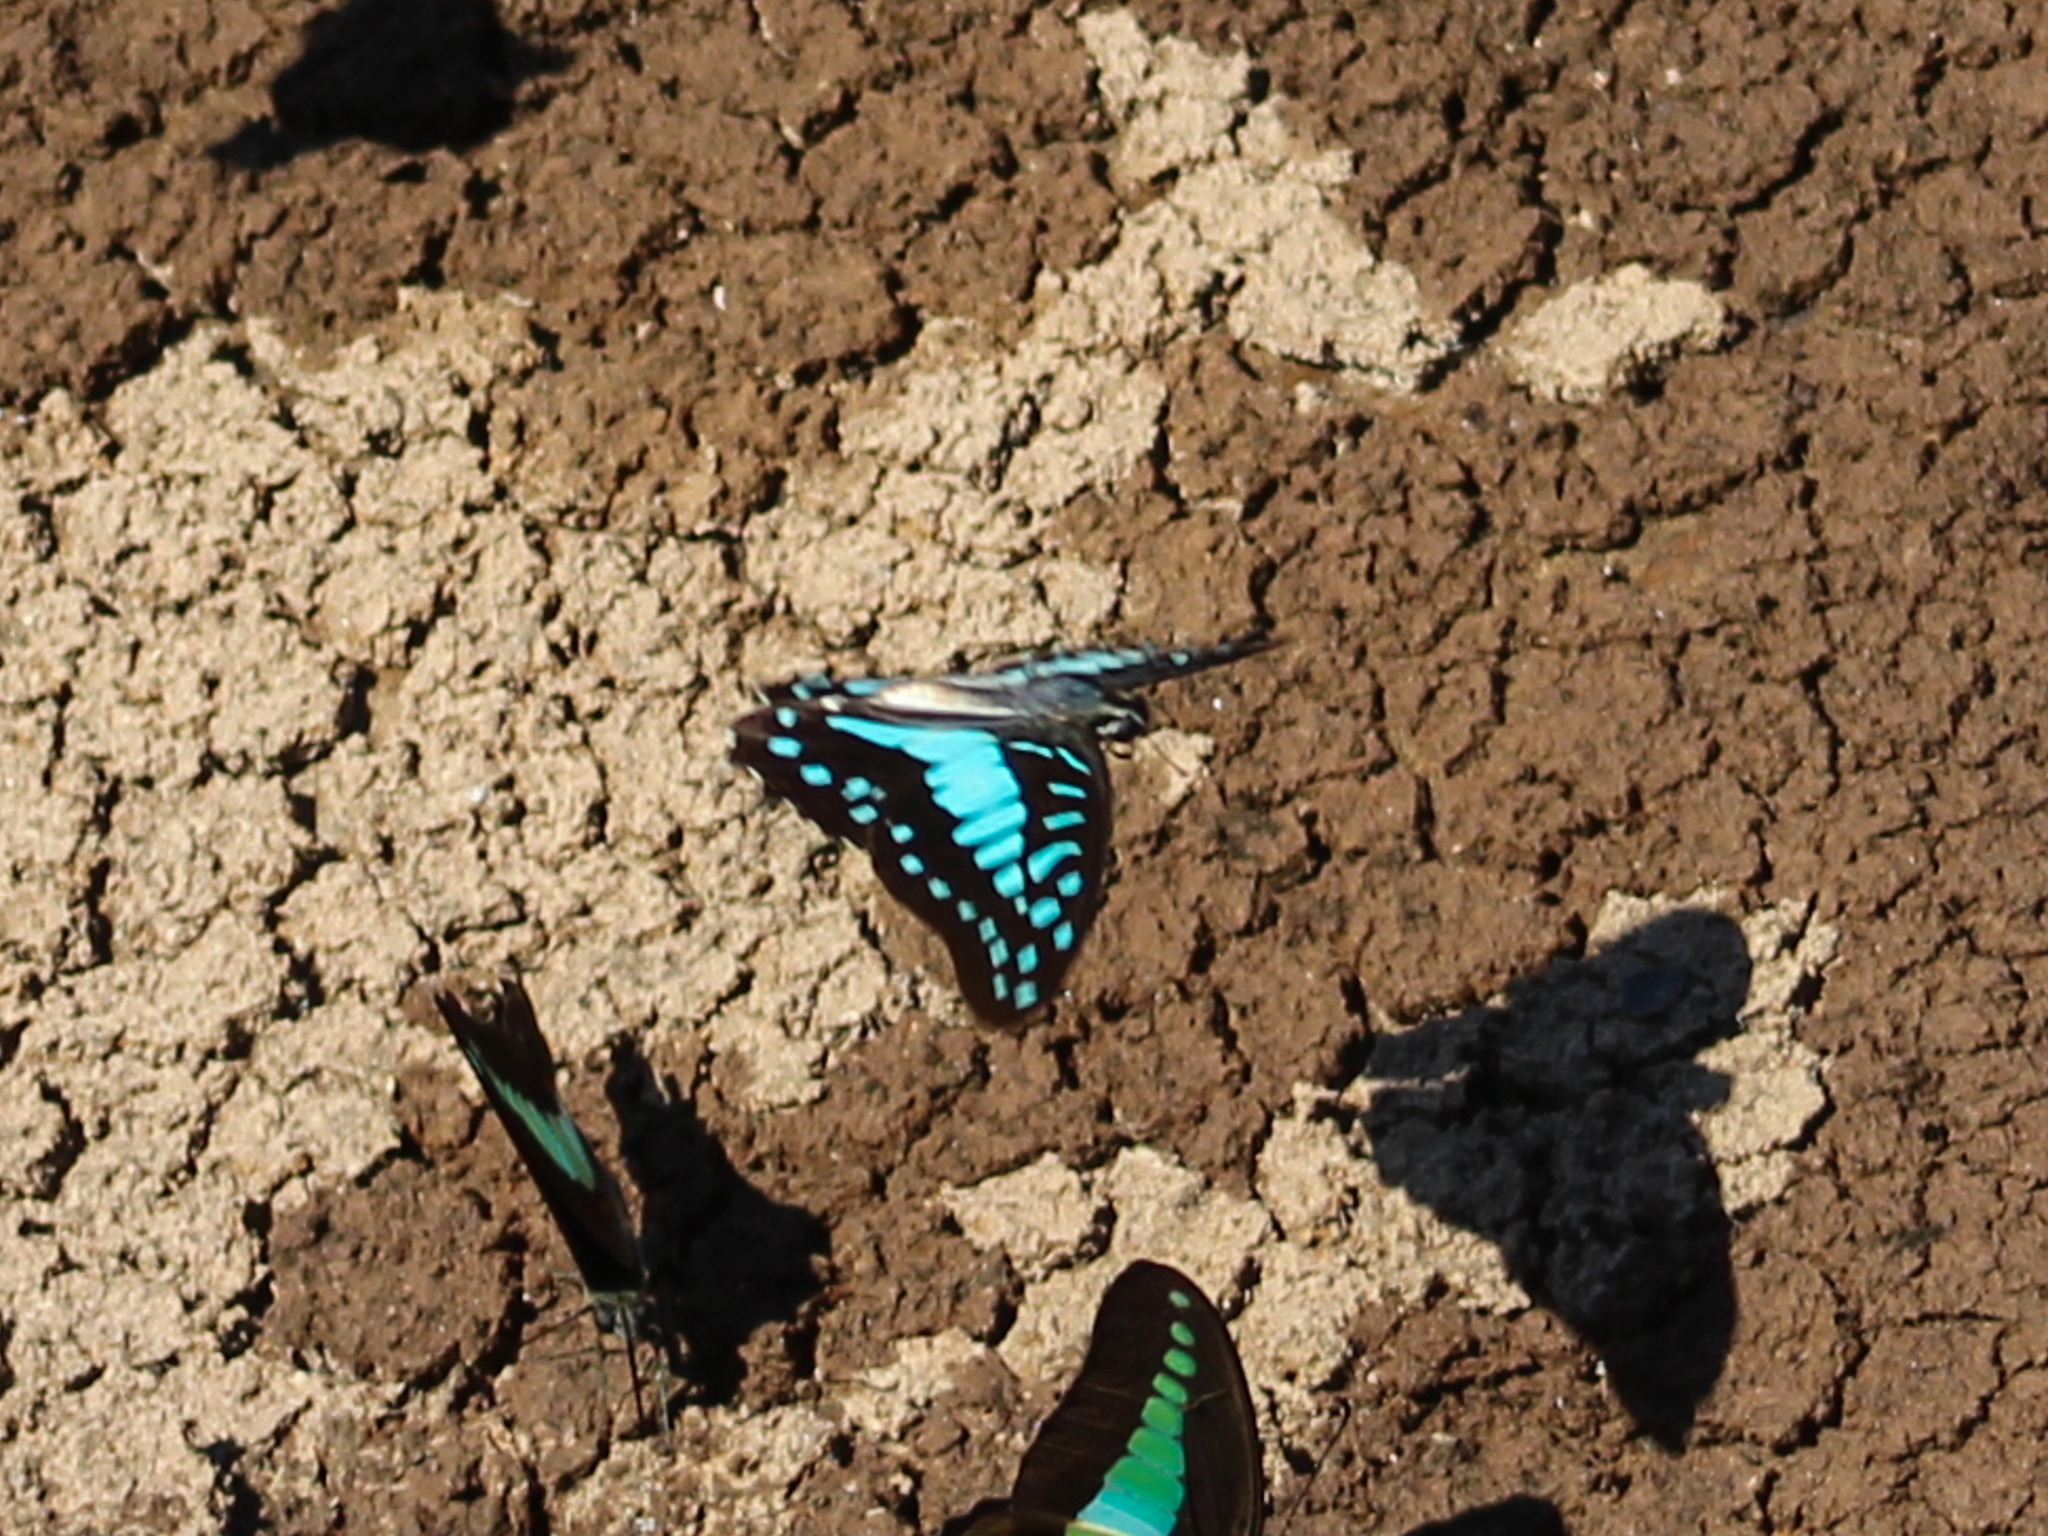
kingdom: Animalia
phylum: Arthropoda
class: Insecta
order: Lepidoptera
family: Papilionidae
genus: Graphium
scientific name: Graphium doson
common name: Common jay
